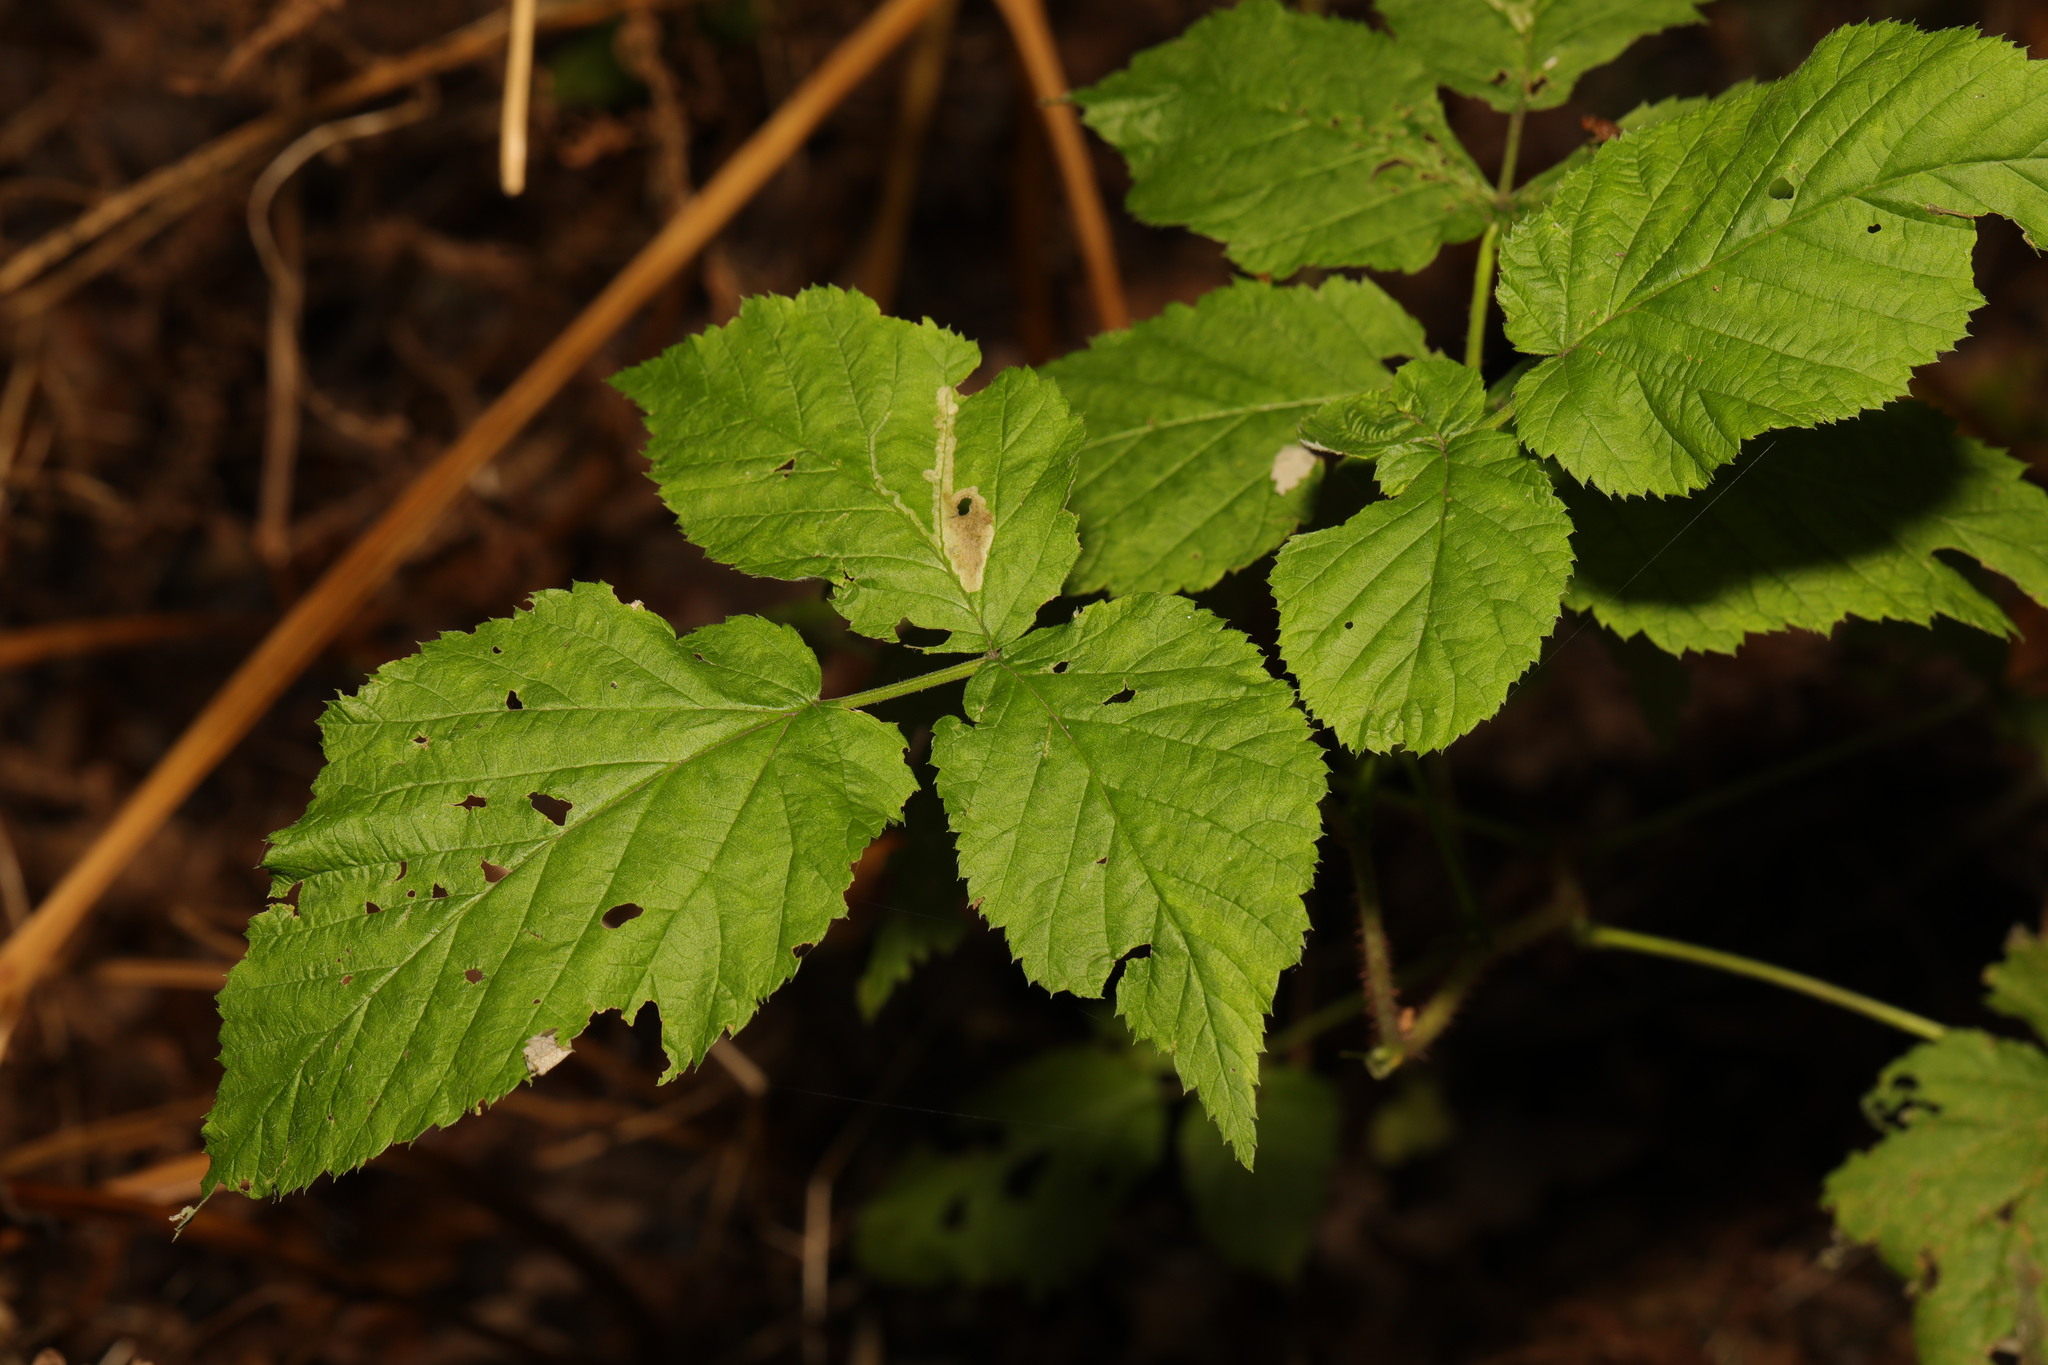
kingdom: Plantae
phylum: Tracheophyta
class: Magnoliopsida
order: Rosales
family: Rosaceae
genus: Rubus
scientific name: Rubus idaeus
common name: Raspberry
